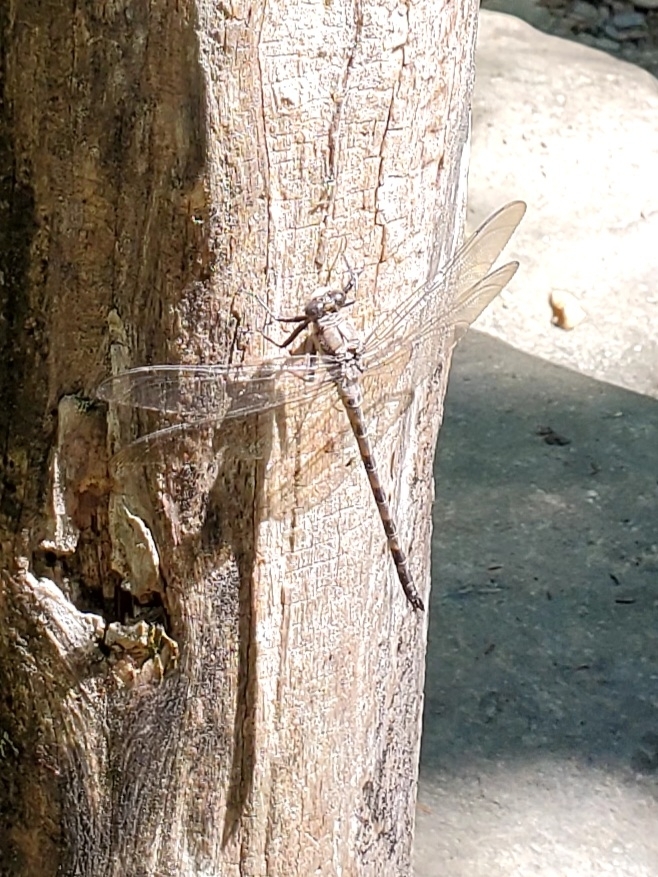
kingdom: Animalia
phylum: Arthropoda
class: Insecta
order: Odonata
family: Petaluridae
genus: Tachopteryx
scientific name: Tachopteryx thoreyi
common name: Gray petaltail
